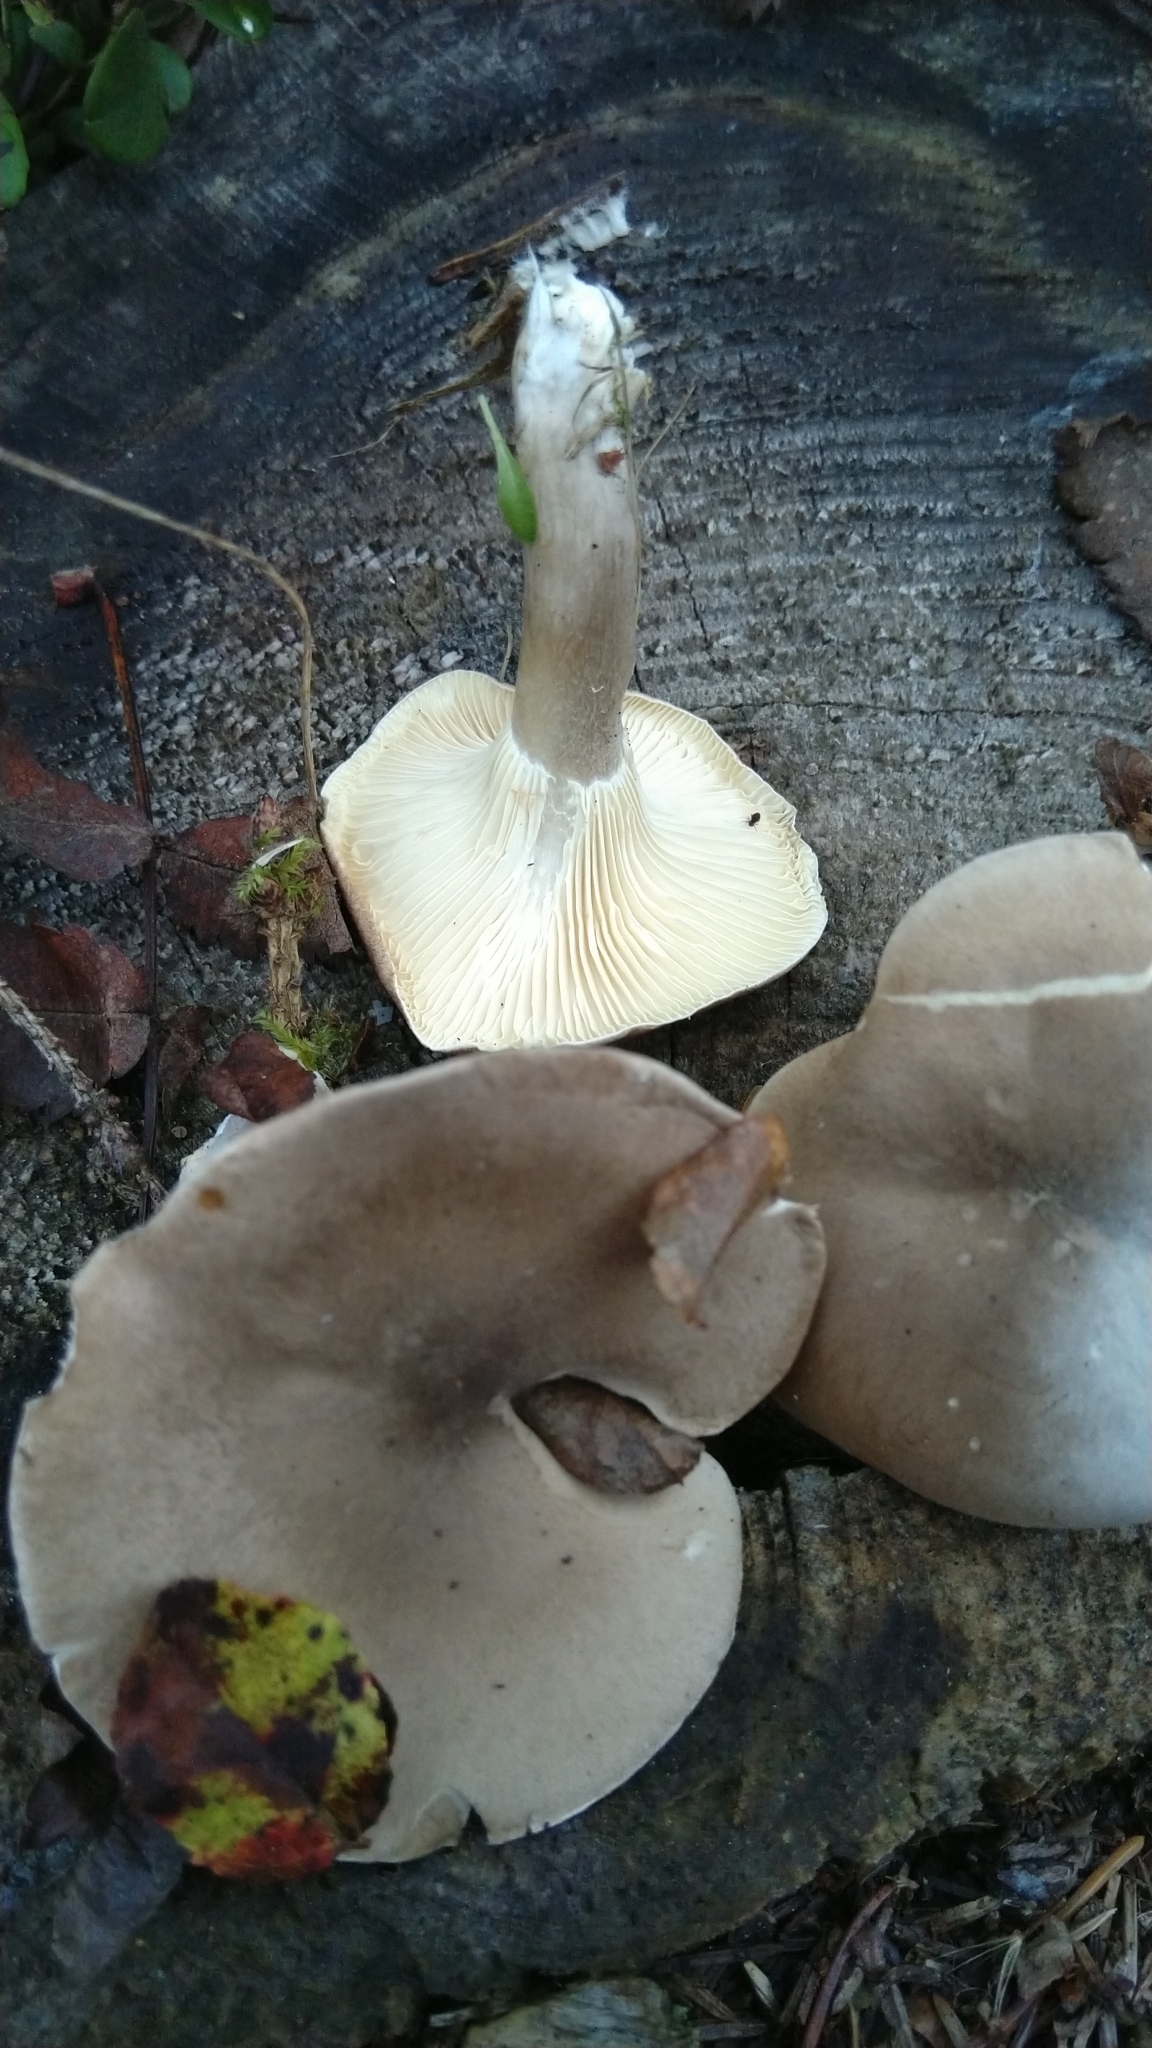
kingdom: Fungi
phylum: Basidiomycota
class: Agaricomycetes
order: Agaricales
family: Hygrophoraceae
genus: Ampulloclitocybe
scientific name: Ampulloclitocybe clavipes
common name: Club foot
